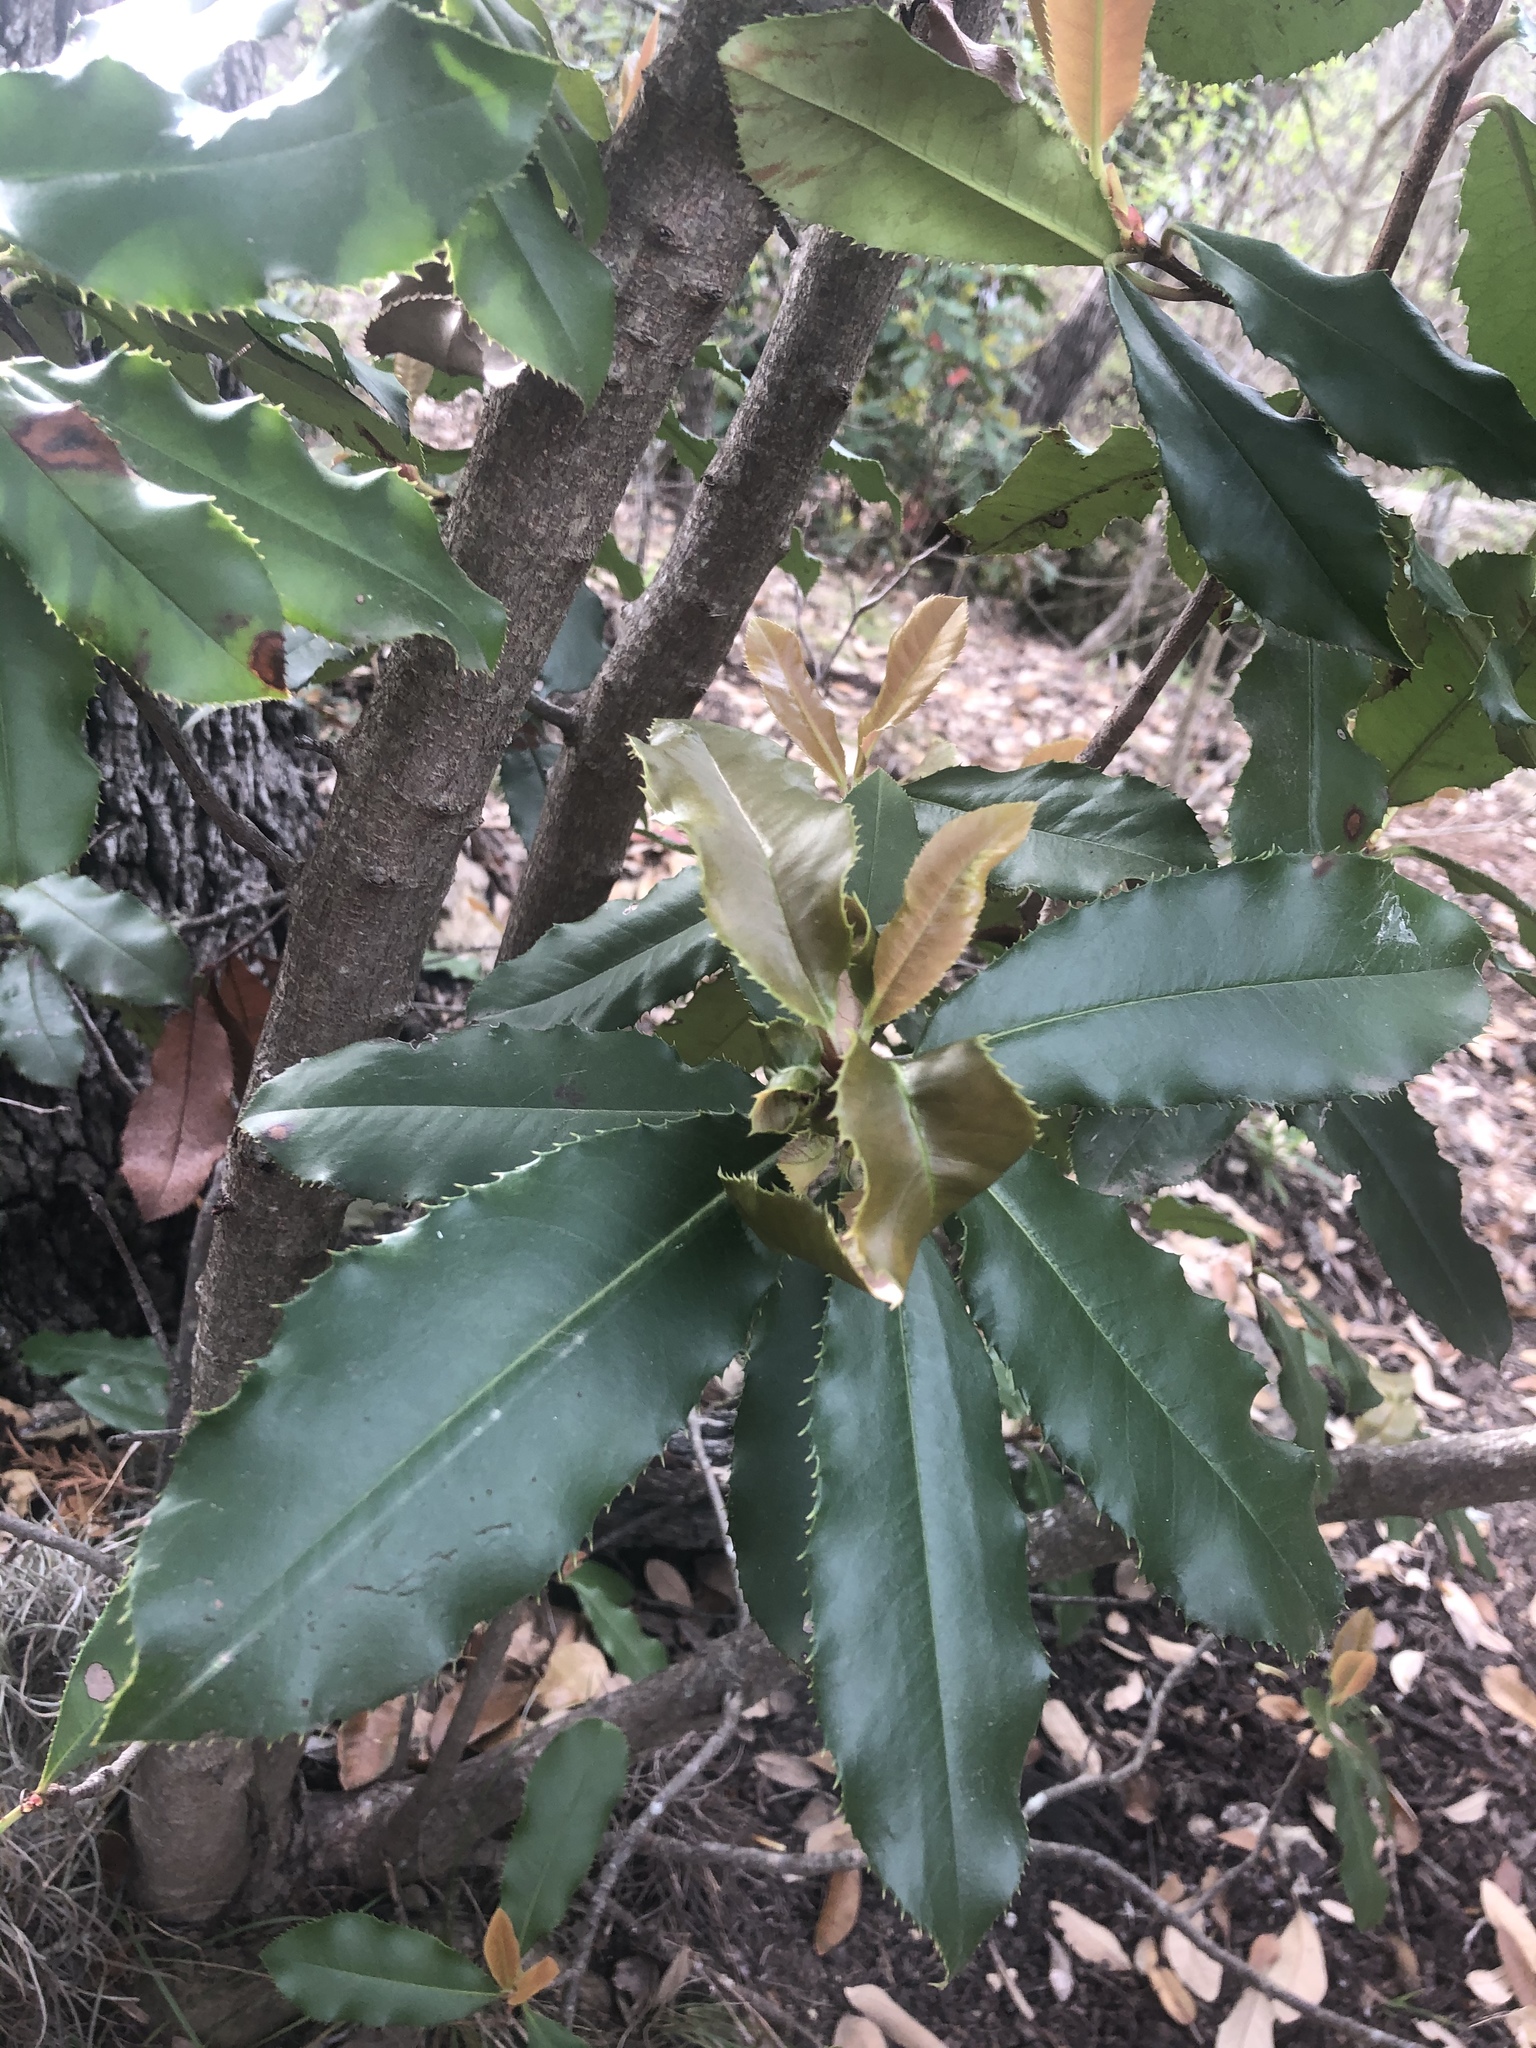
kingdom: Plantae
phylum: Tracheophyta
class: Magnoliopsida
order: Rosales
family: Rosaceae
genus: Photinia
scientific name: Photinia serratifolia
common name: Taiwanese photinia
